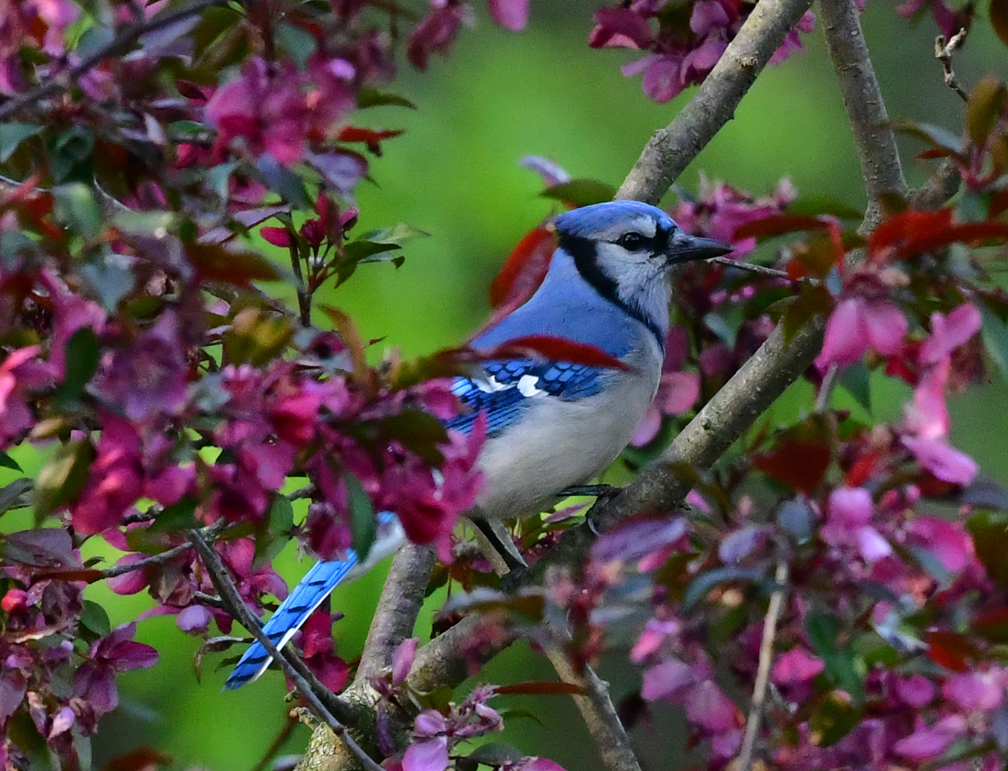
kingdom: Animalia
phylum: Chordata
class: Aves
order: Passeriformes
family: Corvidae
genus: Cyanocitta
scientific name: Cyanocitta cristata
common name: Blue jay
